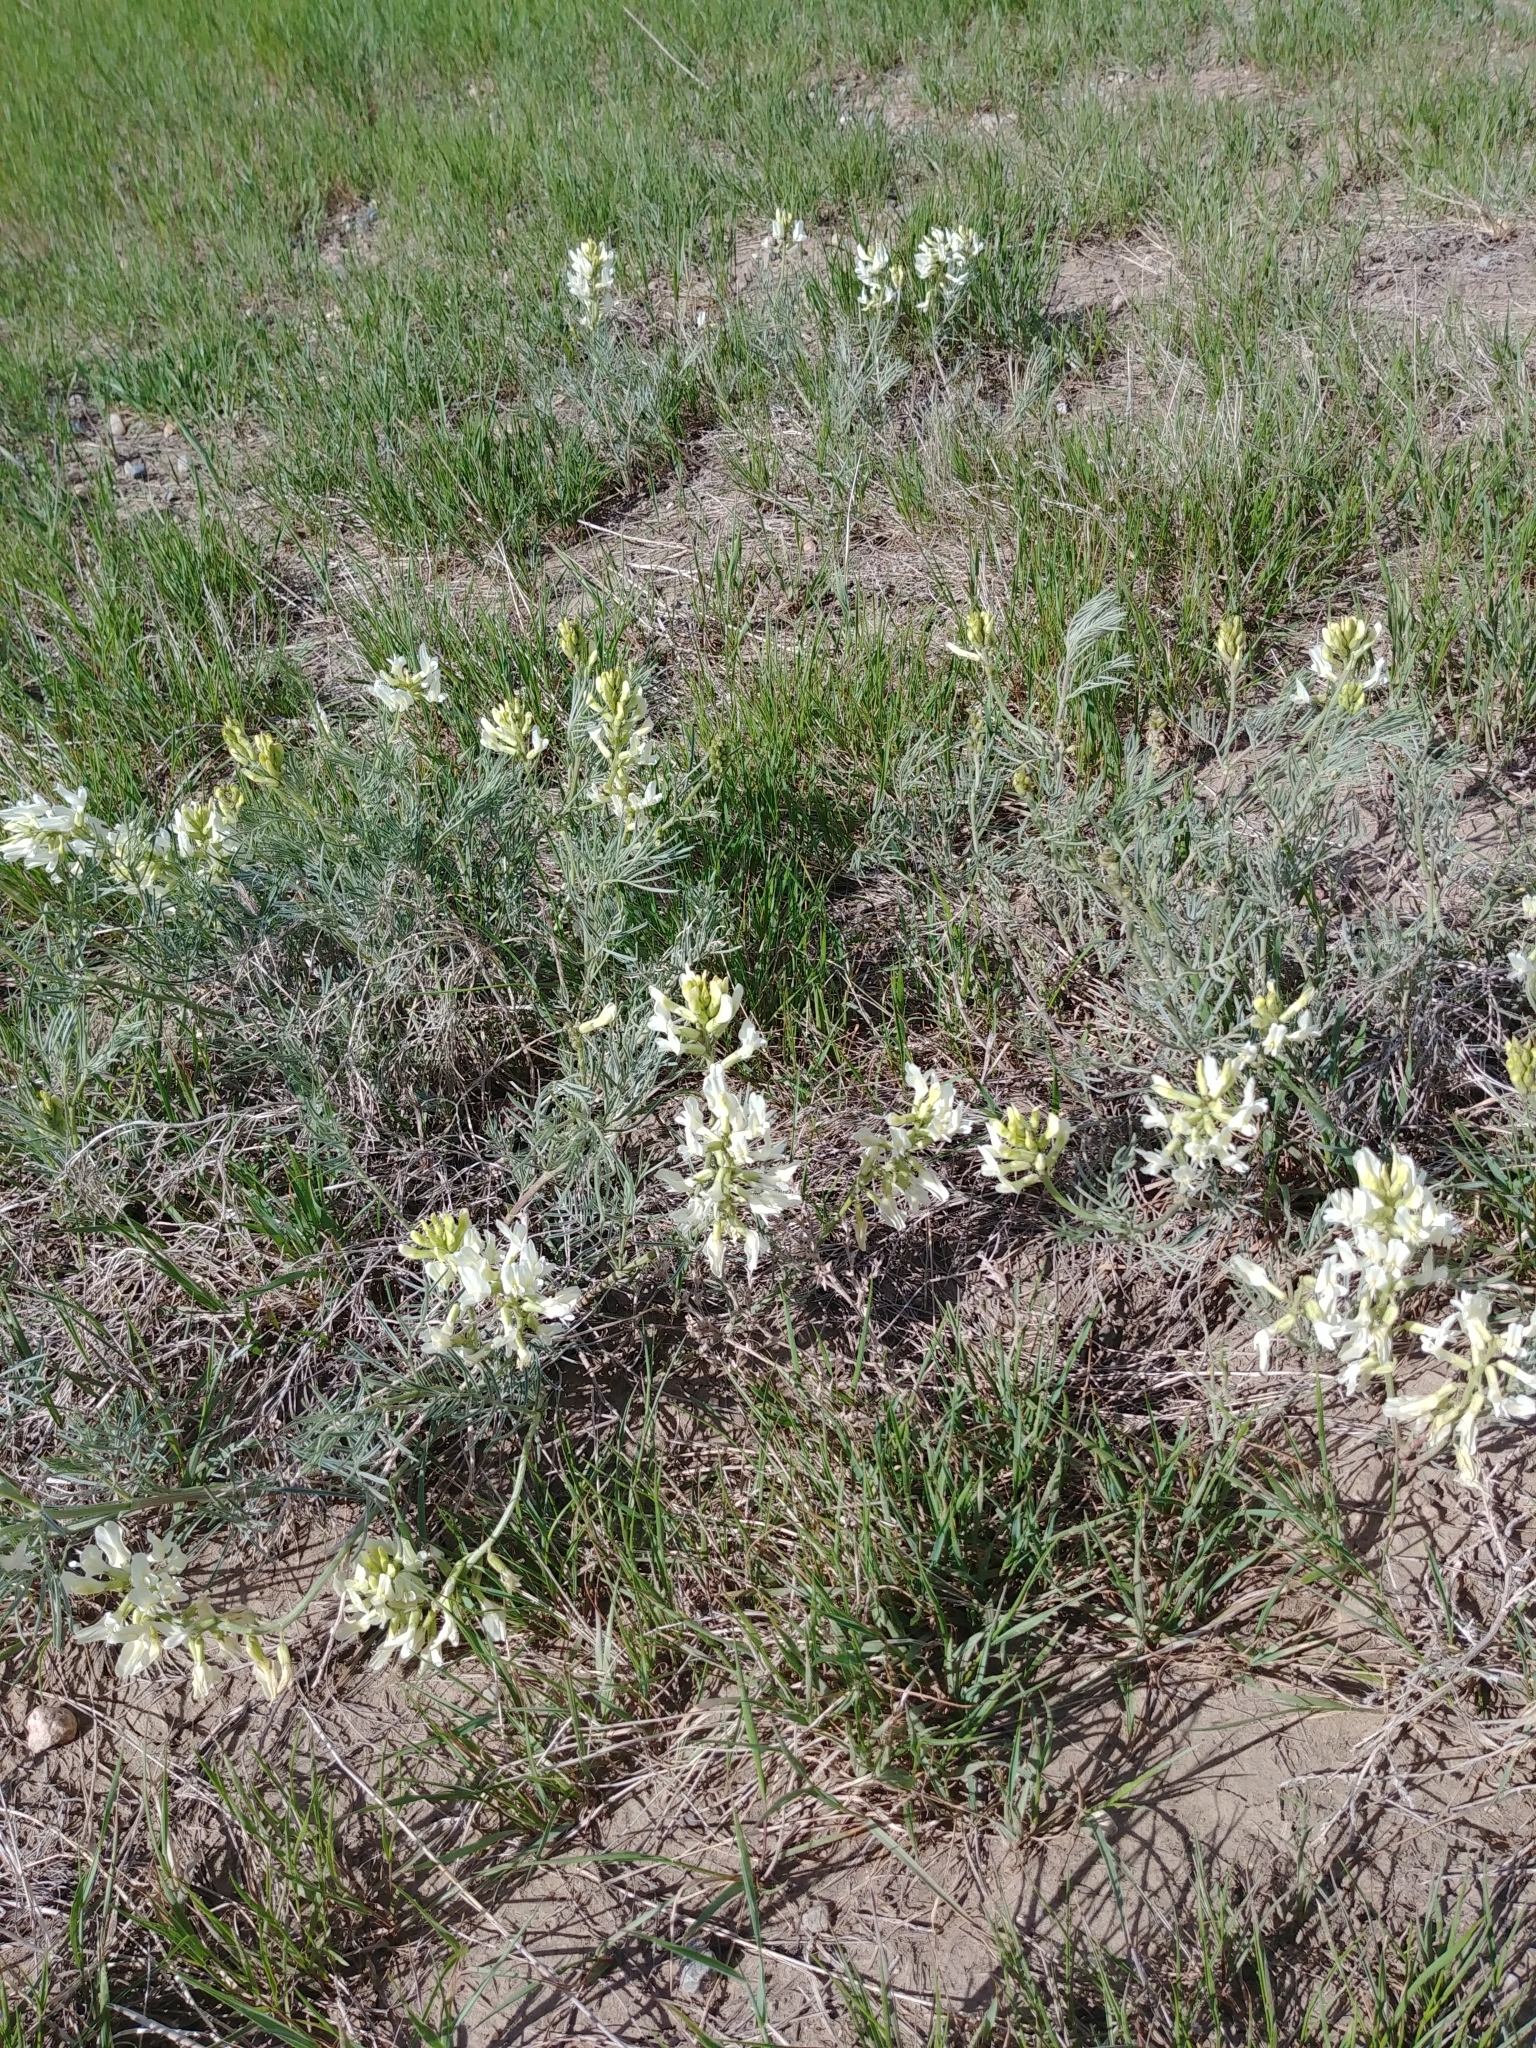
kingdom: Plantae
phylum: Tracheophyta
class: Magnoliopsida
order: Fabales
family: Fabaceae
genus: Astragalus
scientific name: Astragalus pectinatus
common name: Tine-leaf milk-vetch
